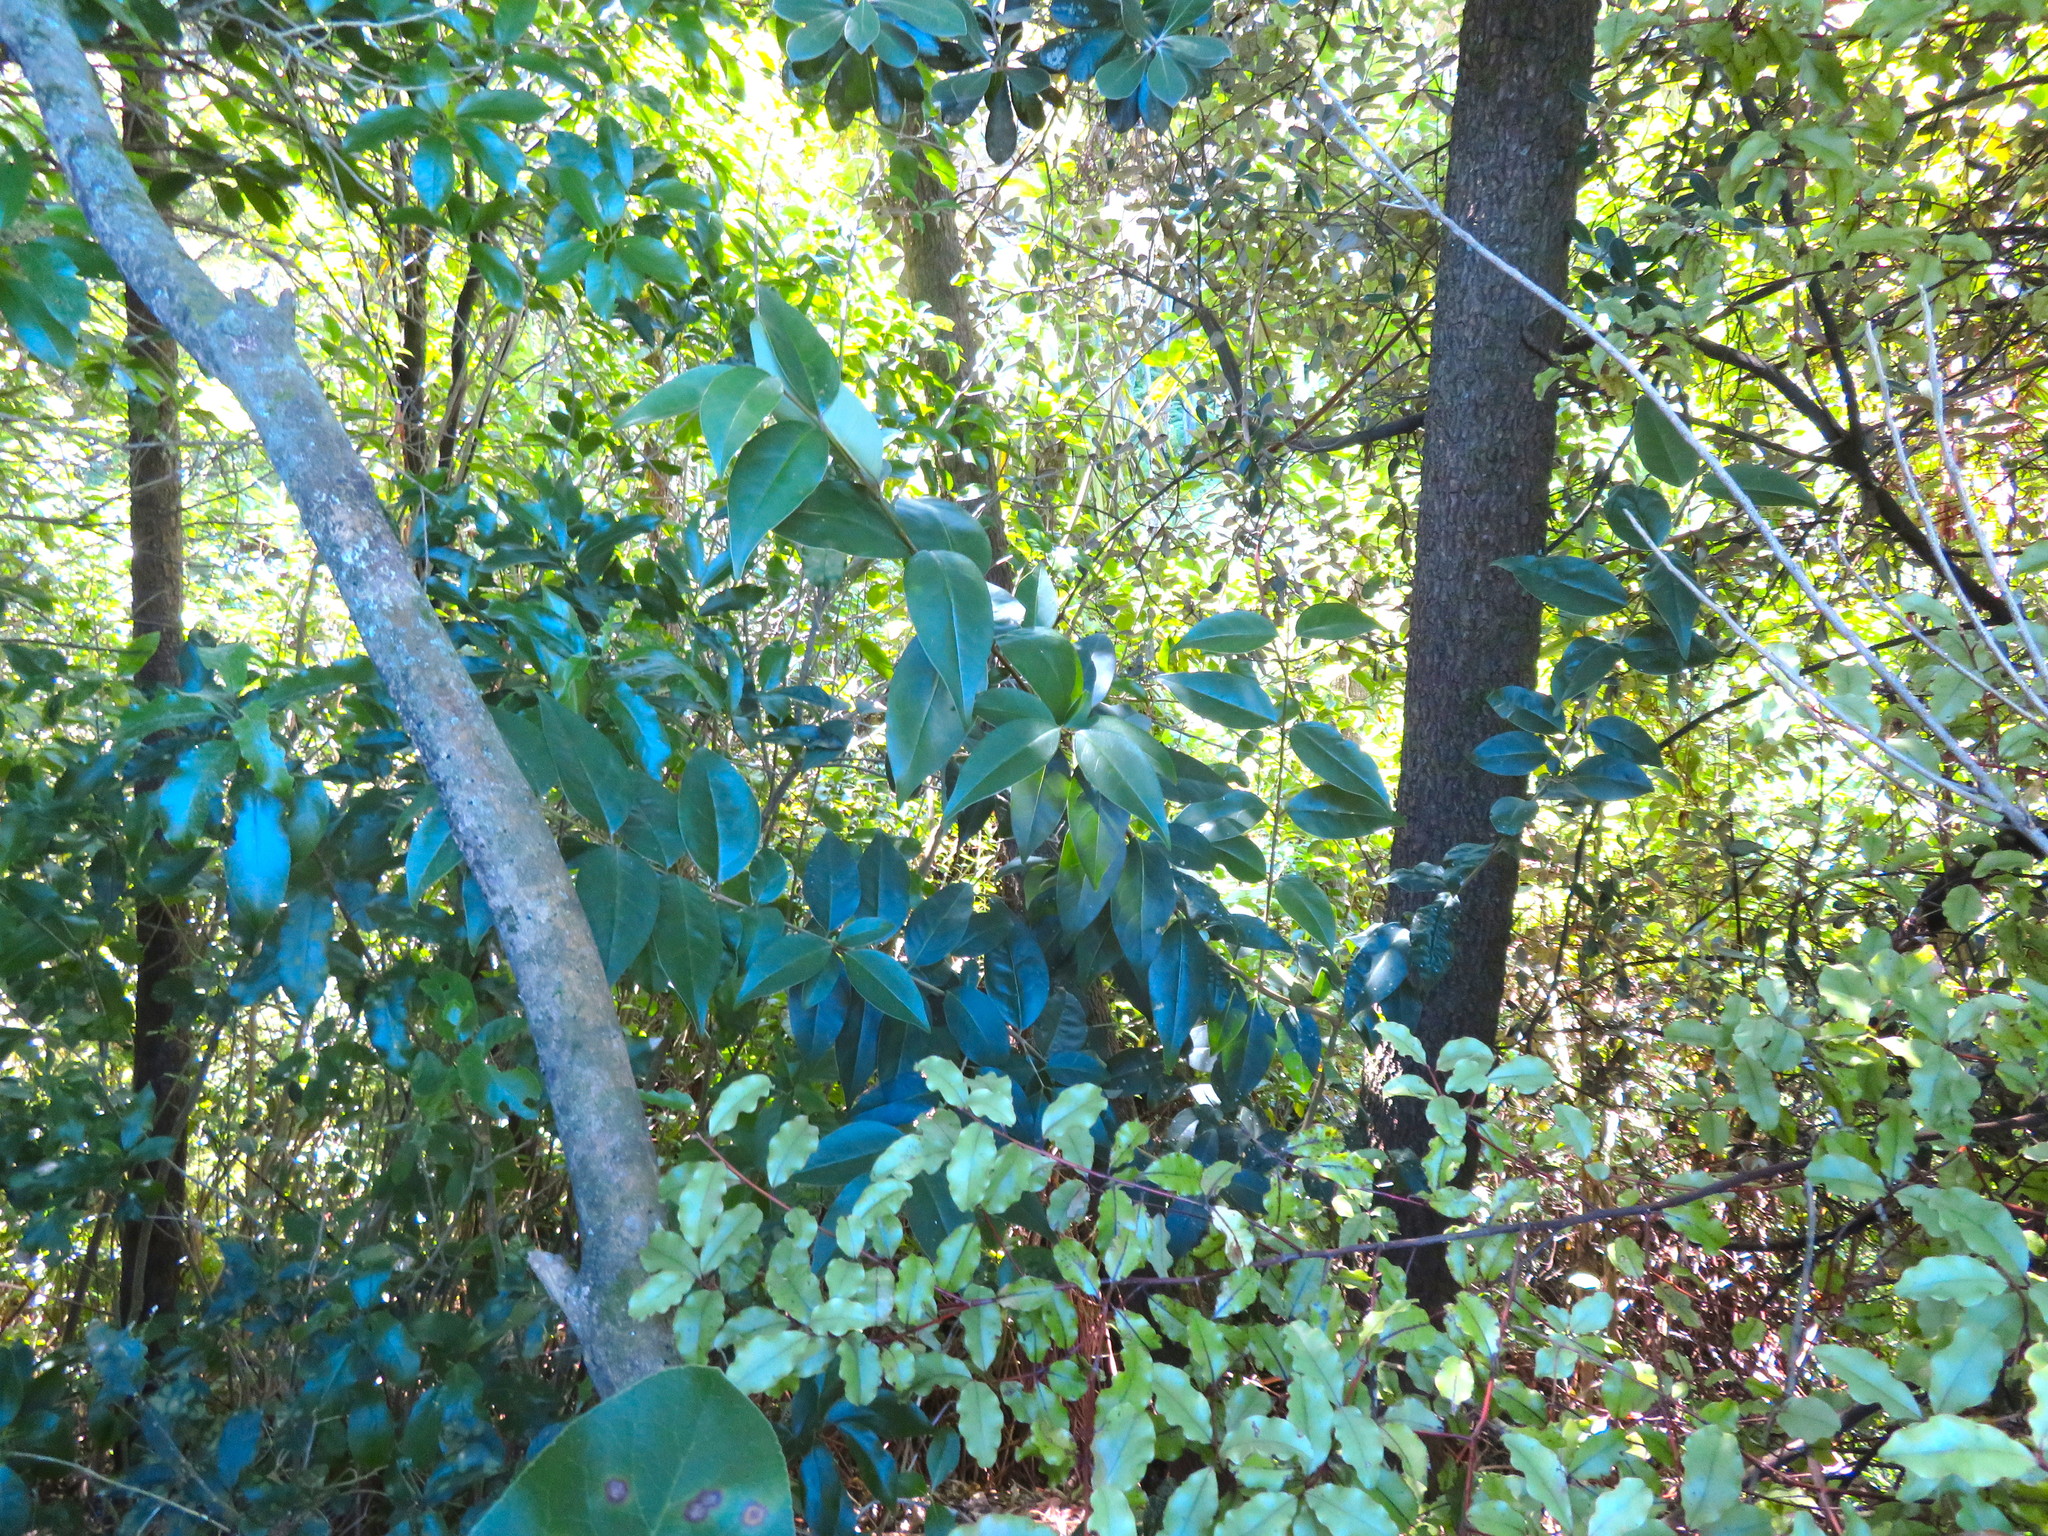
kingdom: Plantae
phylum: Tracheophyta
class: Magnoliopsida
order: Lamiales
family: Oleaceae
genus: Ligustrum
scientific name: Ligustrum lucidum
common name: Glossy privet
